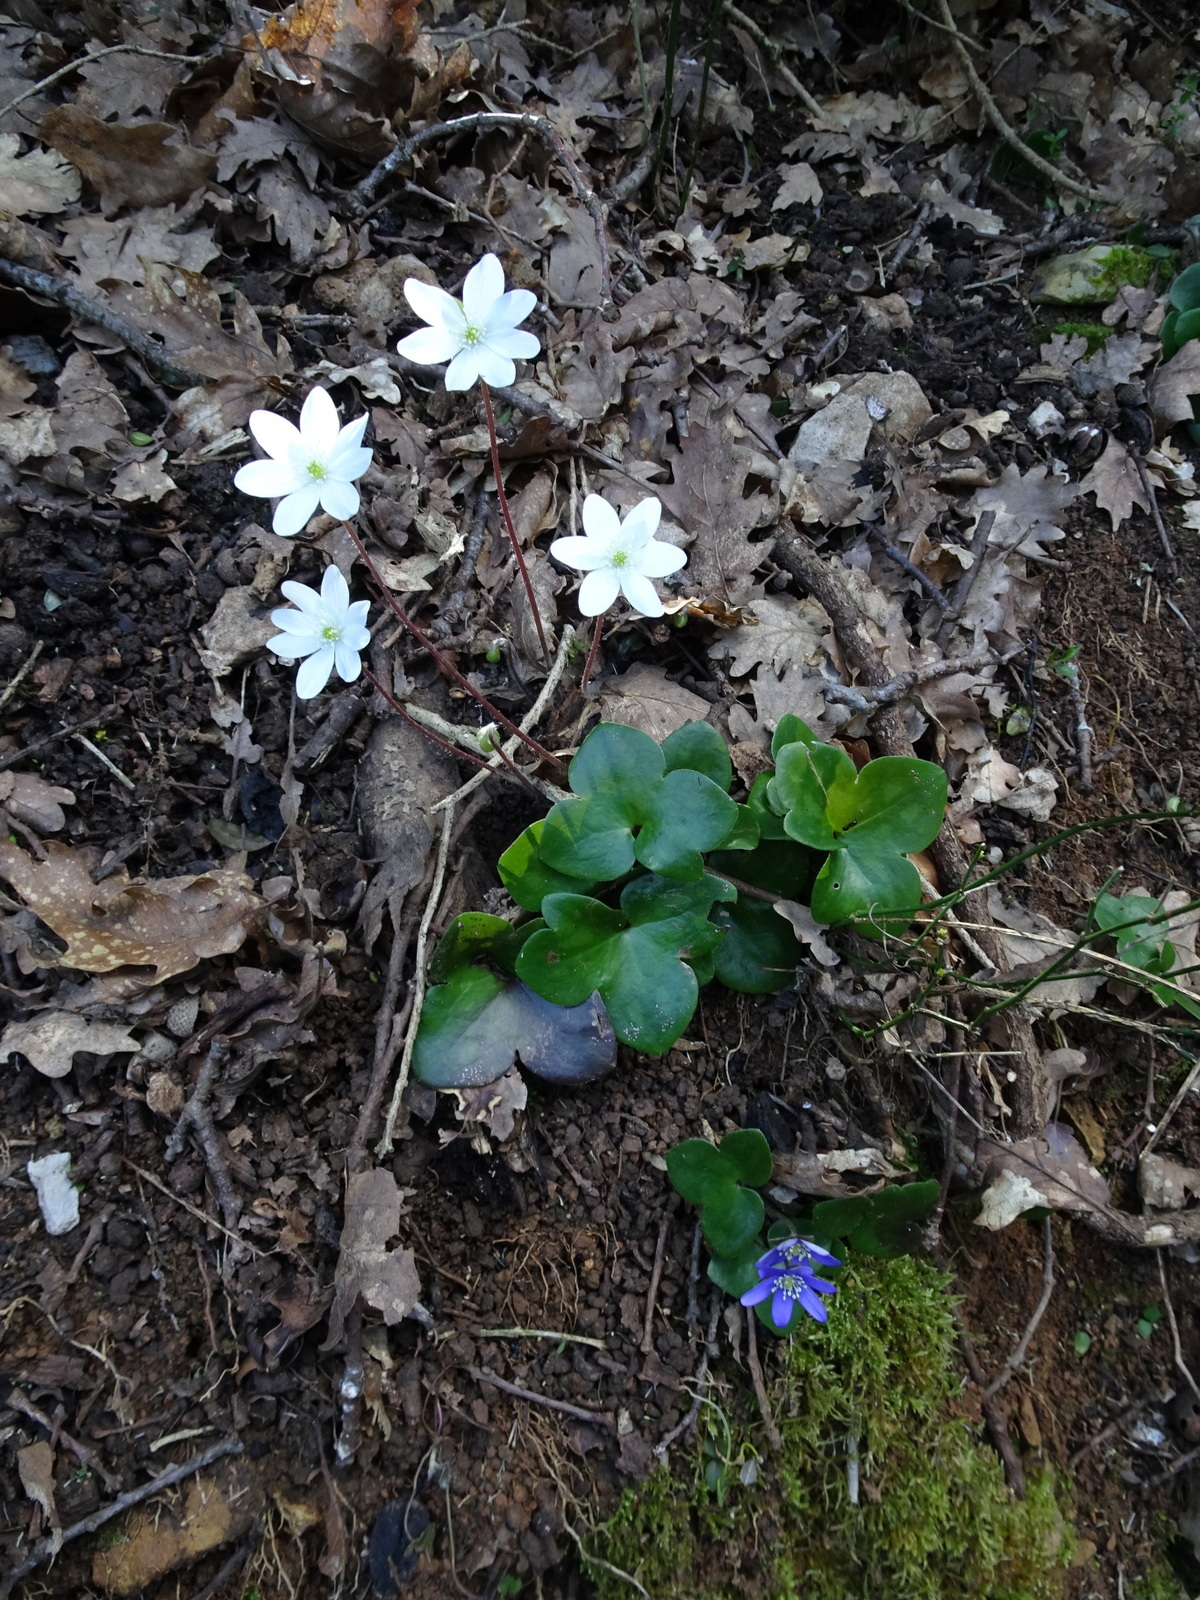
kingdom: Plantae
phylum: Tracheophyta
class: Magnoliopsida
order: Ranunculales
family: Ranunculaceae
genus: Hepatica
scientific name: Hepatica nobilis
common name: Liverleaf
